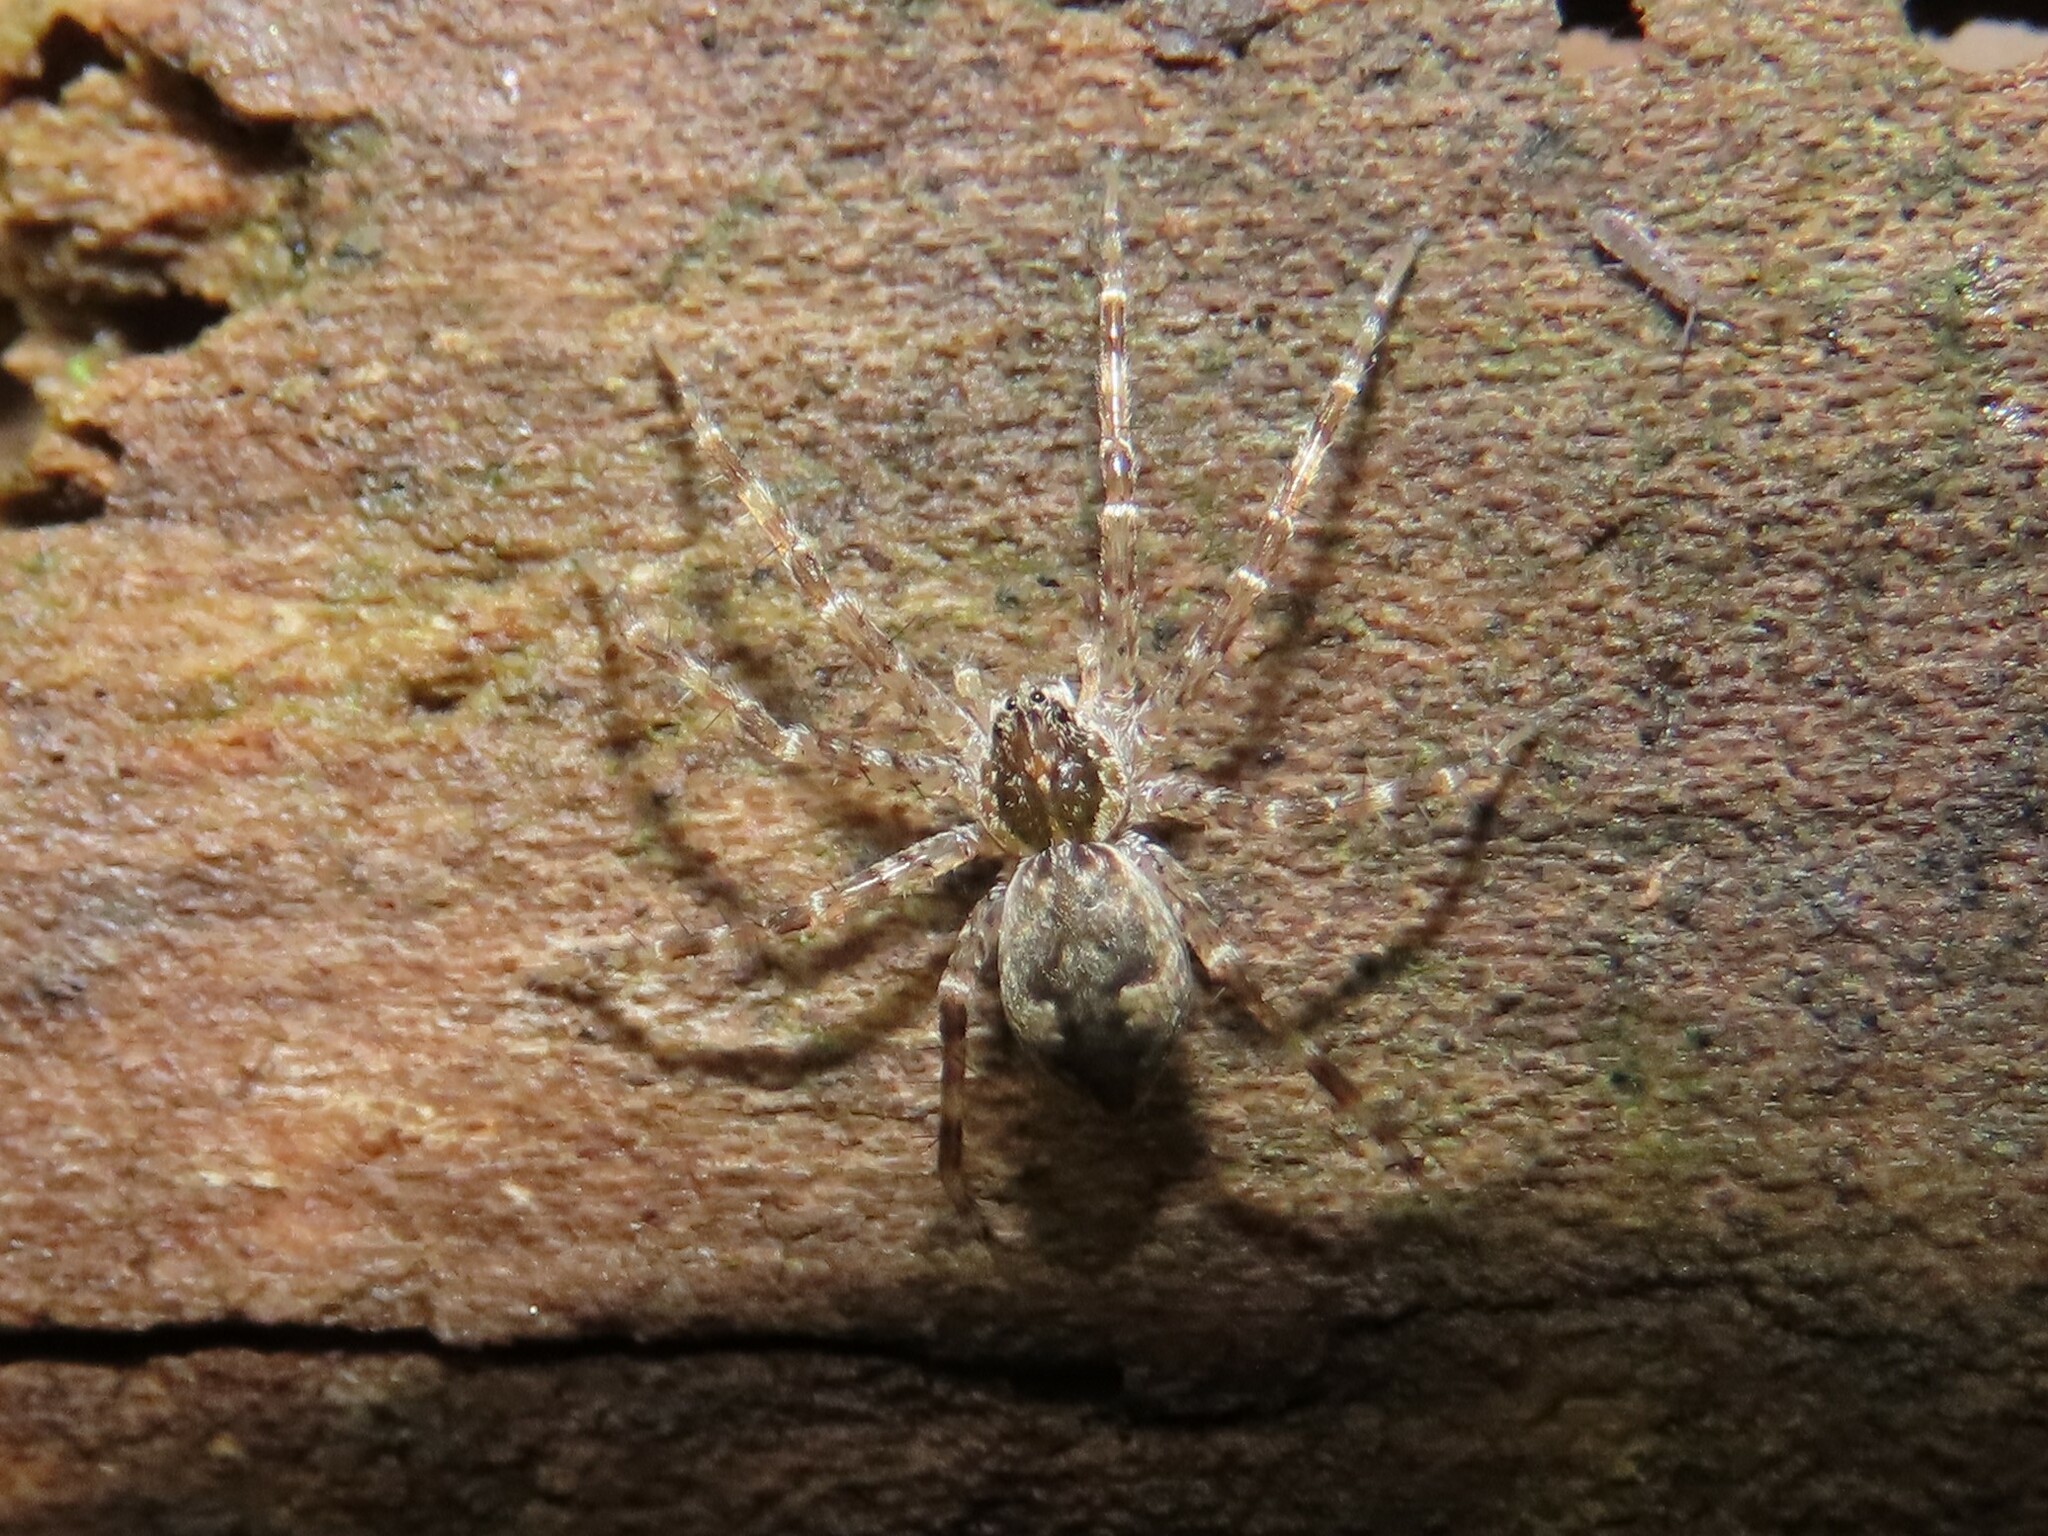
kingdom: Animalia
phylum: Arthropoda
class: Arachnida
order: Araneae
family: Pisauridae
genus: Dolomedes
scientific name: Dolomedes albineus
